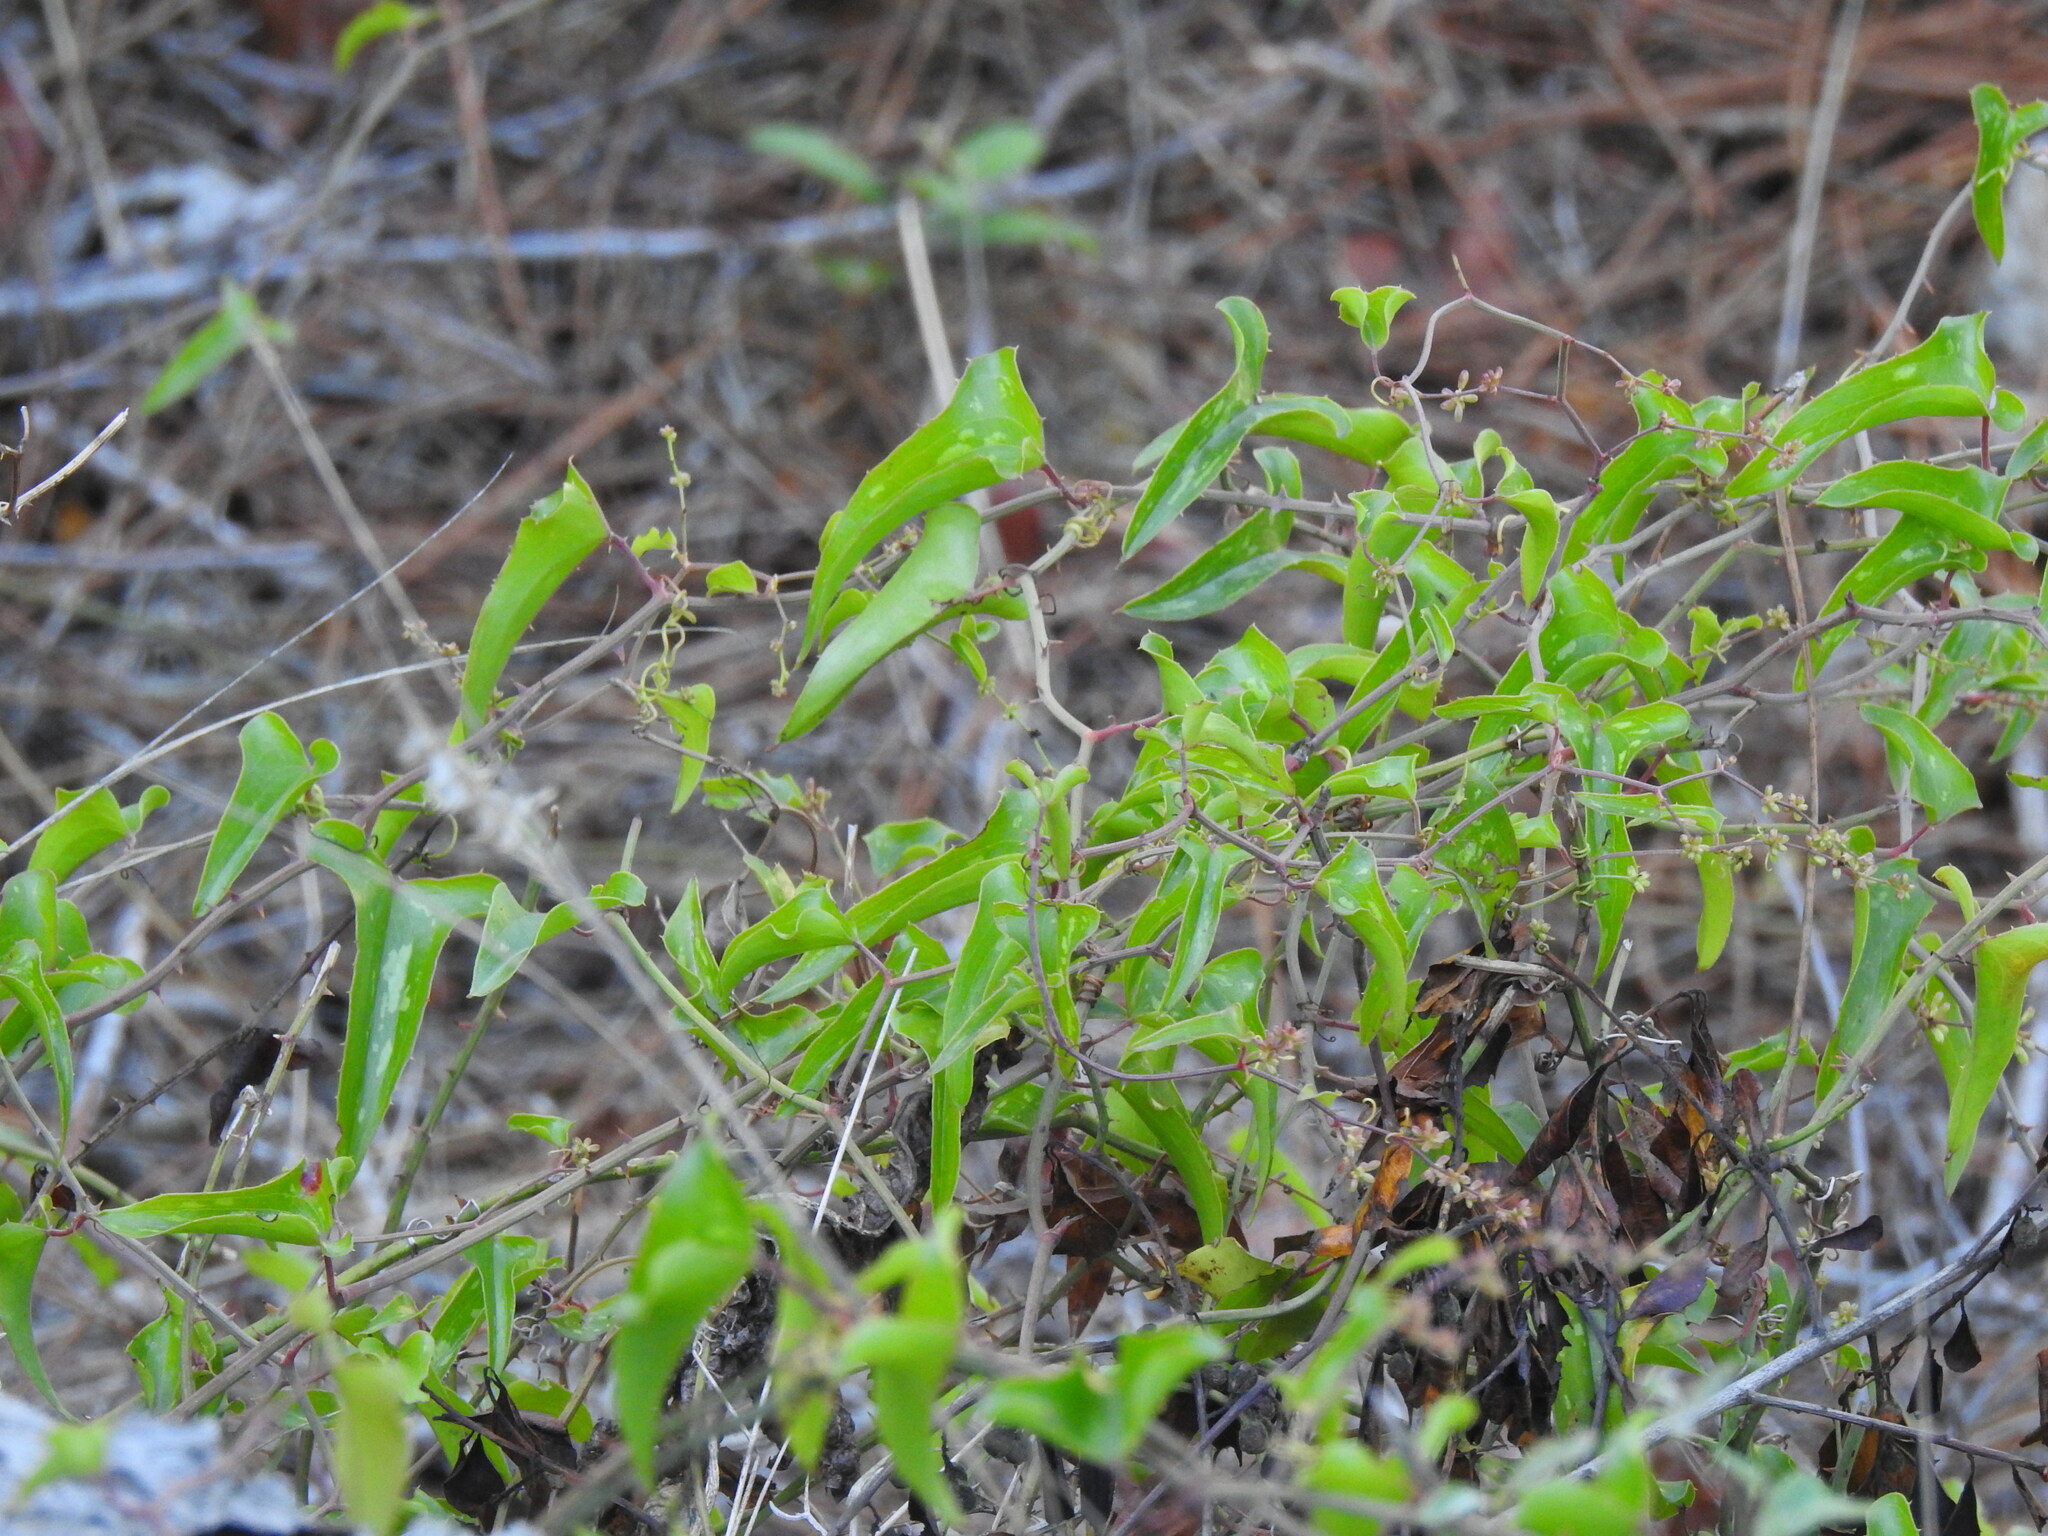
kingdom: Plantae
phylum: Tracheophyta
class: Liliopsida
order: Liliales
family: Smilacaceae
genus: Smilax
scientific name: Smilax aspera
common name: Common smilax
